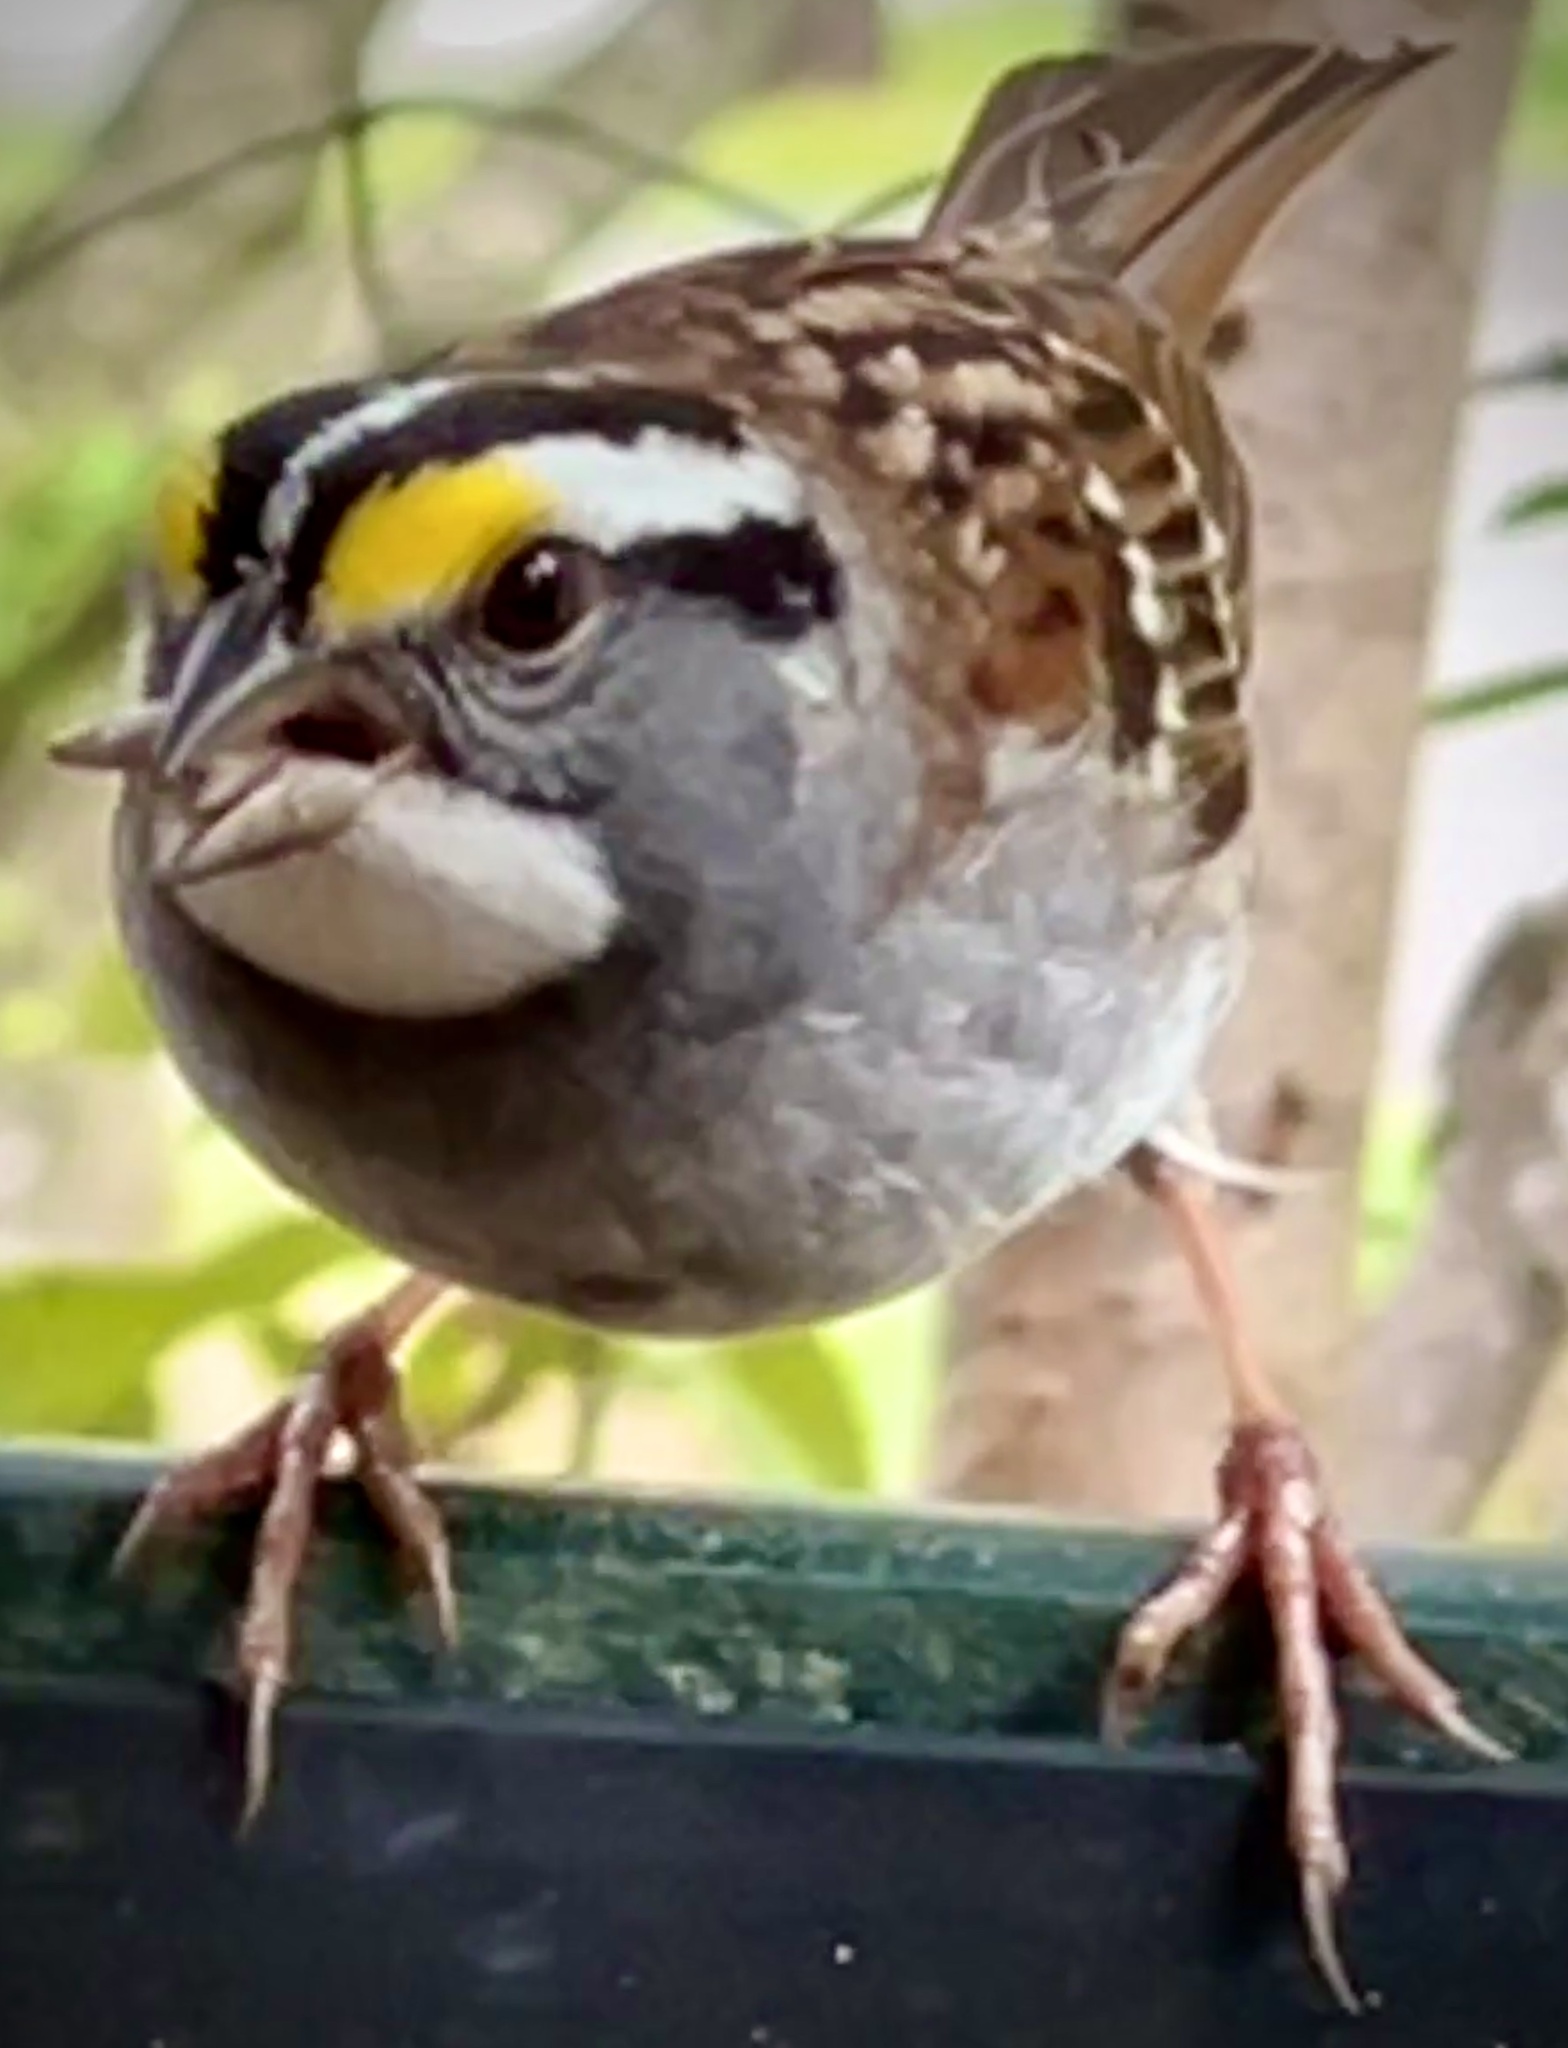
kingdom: Animalia
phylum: Chordata
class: Aves
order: Passeriformes
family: Passerellidae
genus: Zonotrichia
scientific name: Zonotrichia albicollis
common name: White-throated sparrow
